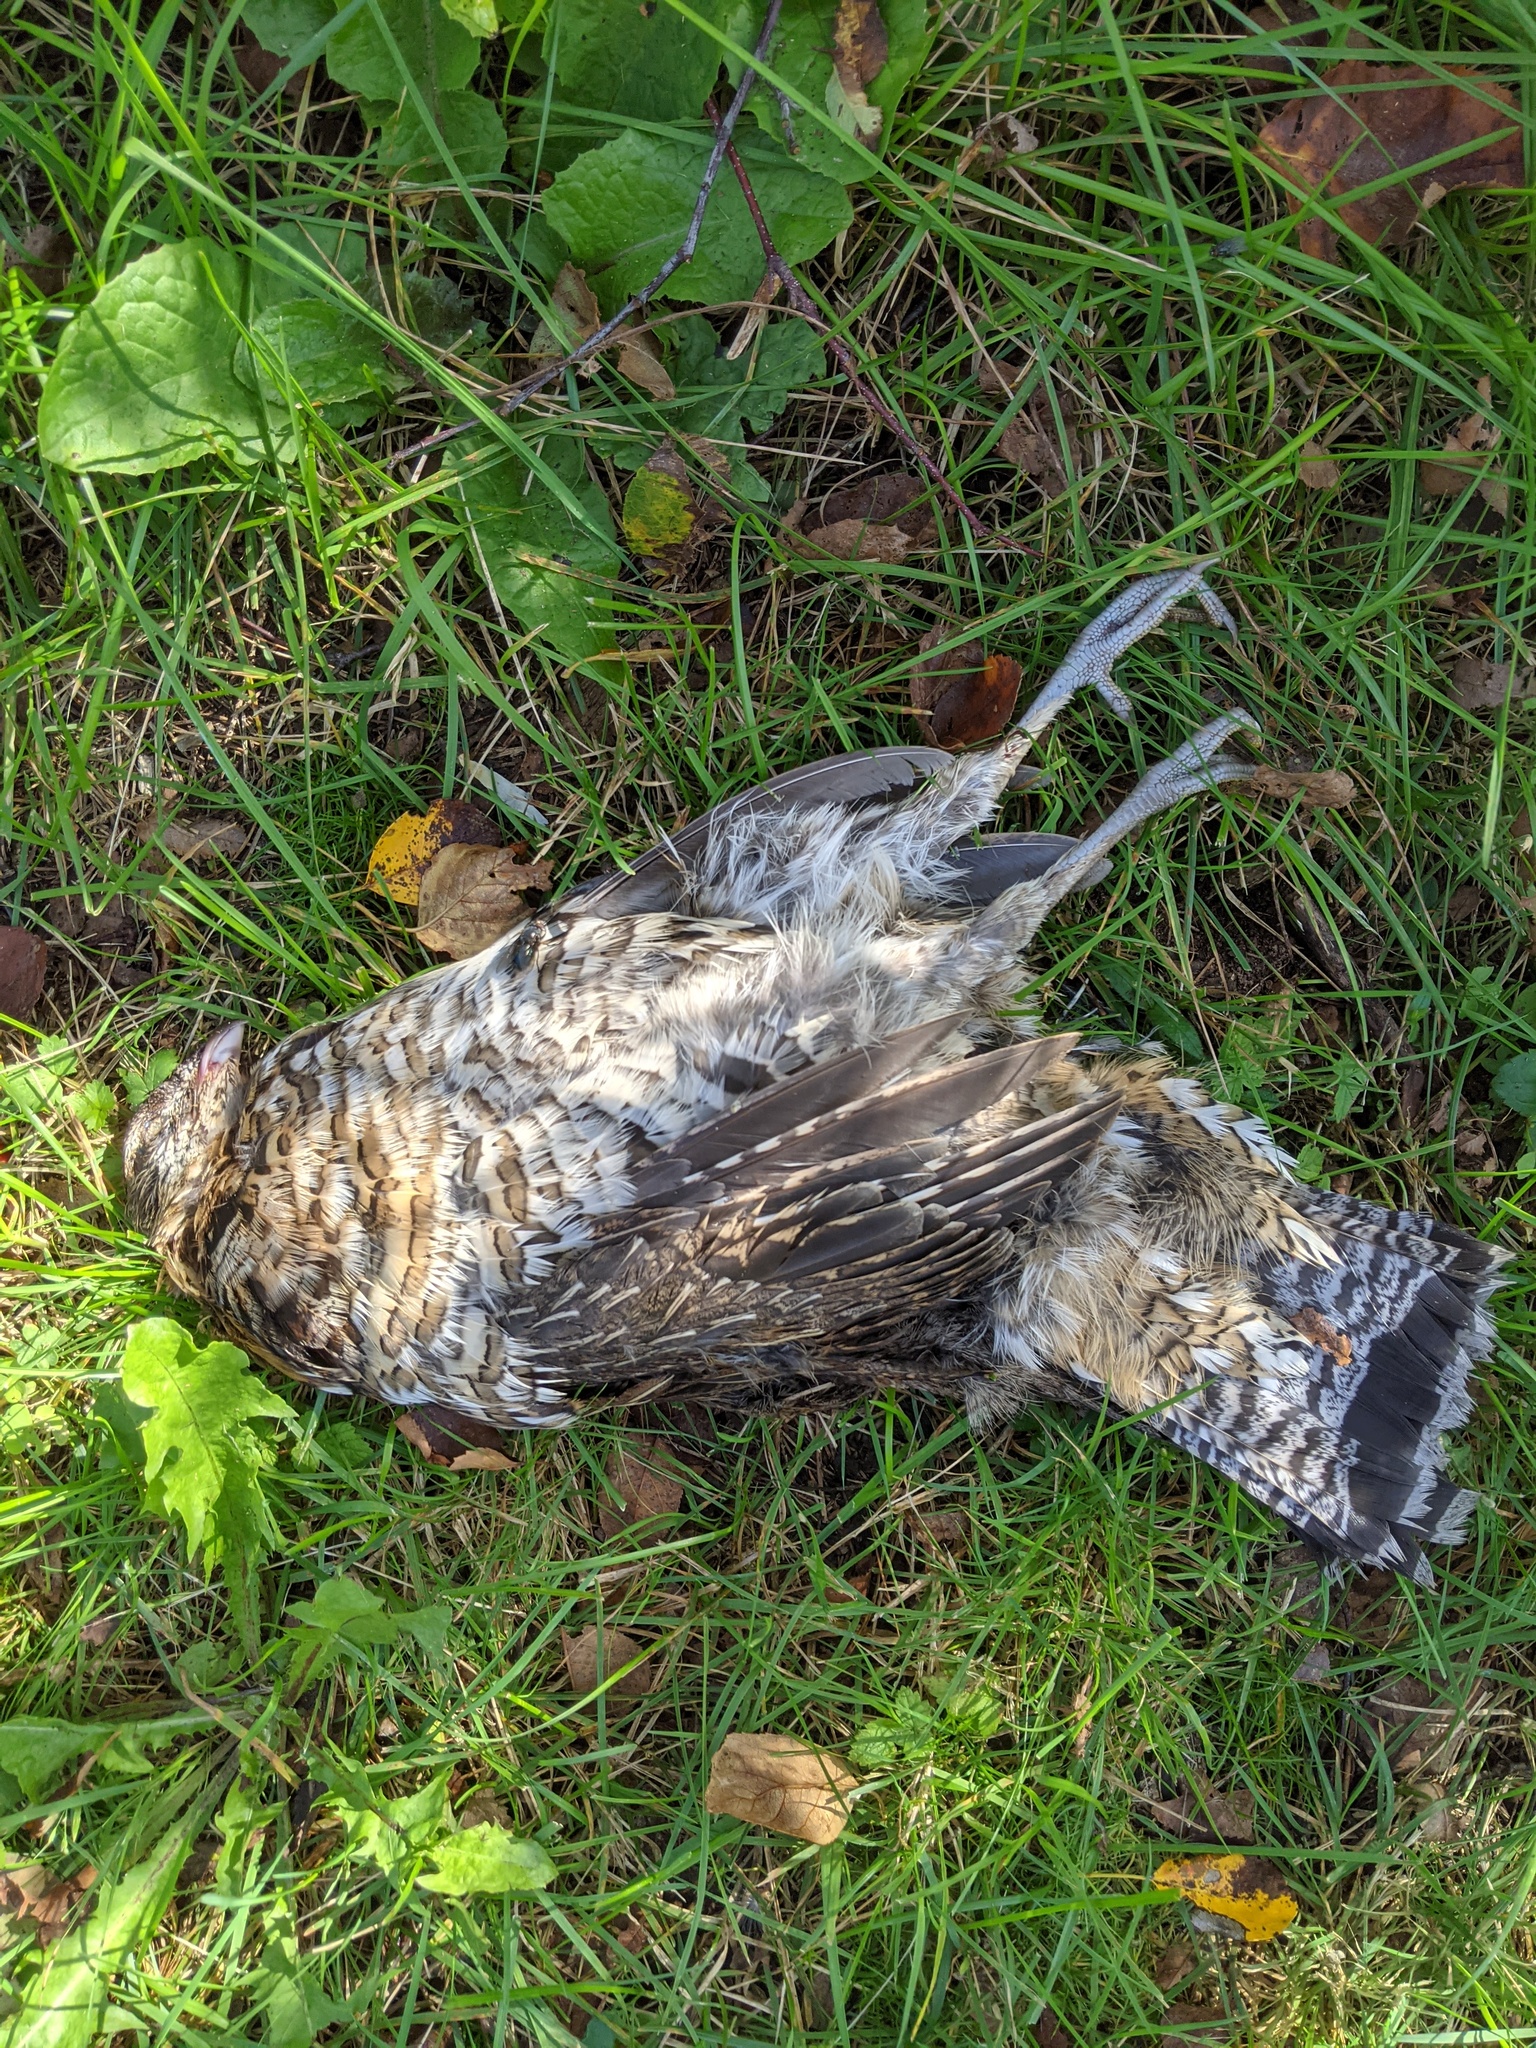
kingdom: Animalia
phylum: Chordata
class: Aves
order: Galliformes
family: Phasianidae
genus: Bonasa
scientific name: Bonasa umbellus
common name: Ruffed grouse
